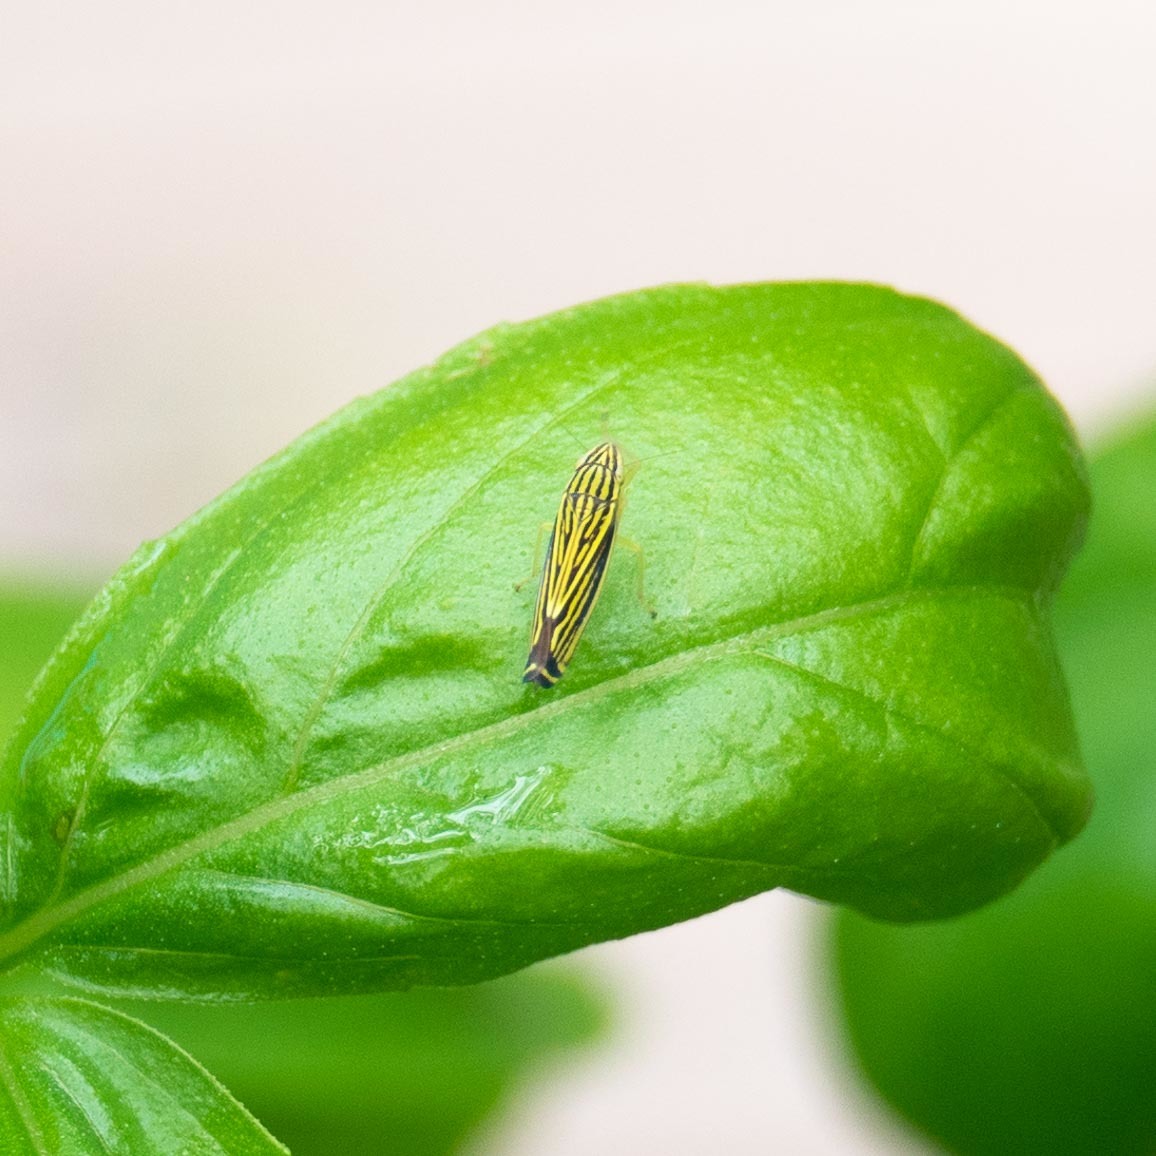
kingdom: Animalia
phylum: Arthropoda
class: Insecta
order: Hemiptera
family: Cicadellidae
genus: Sibovia
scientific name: Sibovia occatoria
